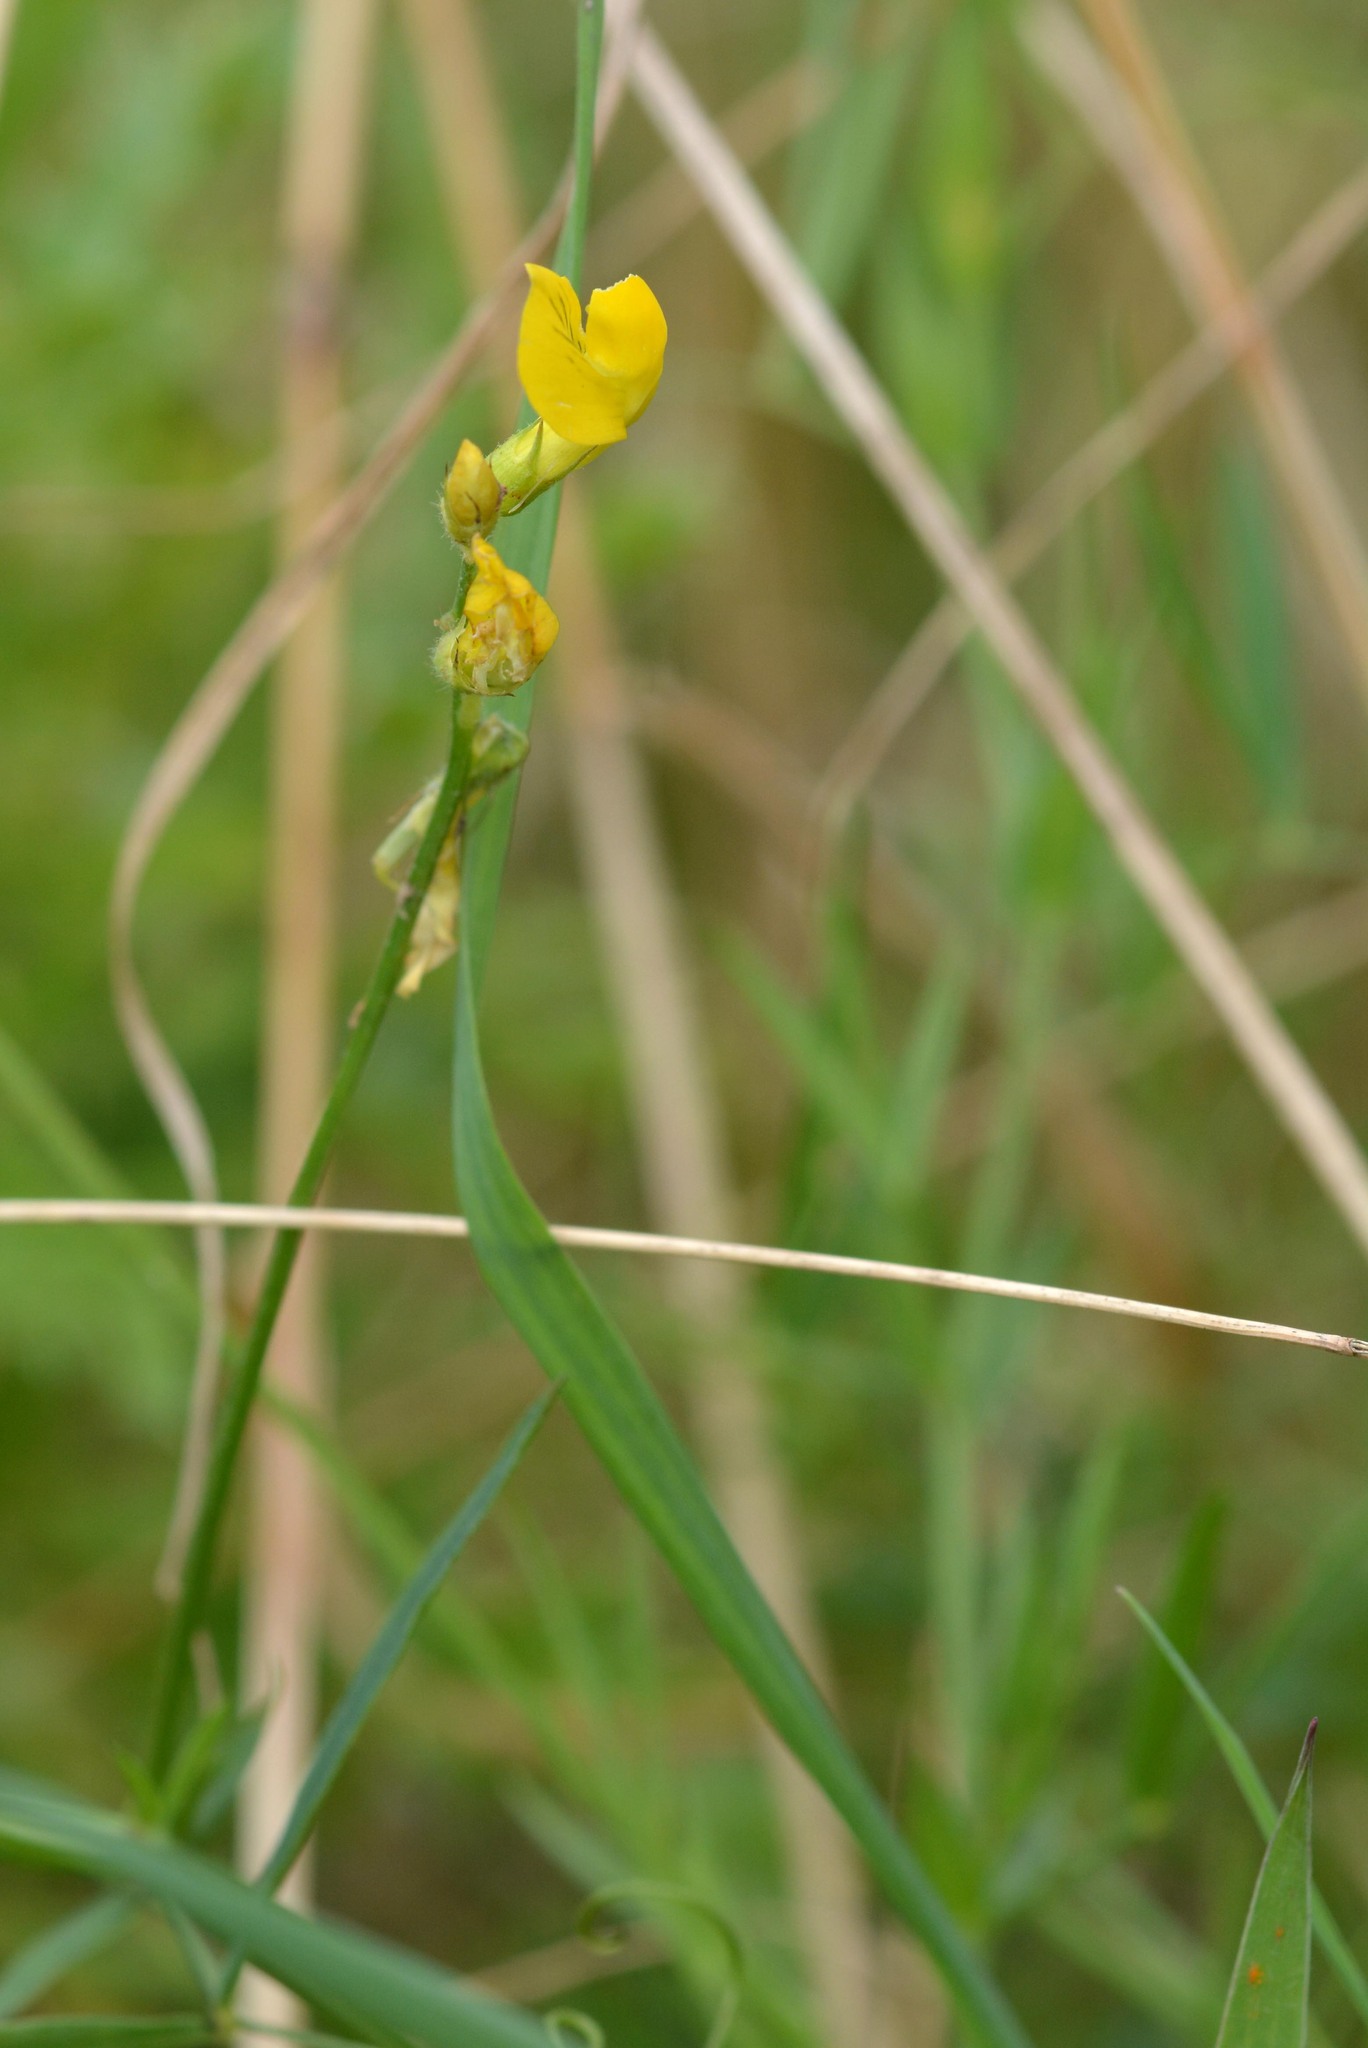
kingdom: Plantae
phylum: Tracheophyta
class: Magnoliopsida
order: Fabales
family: Fabaceae
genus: Lathyrus
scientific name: Lathyrus pratensis
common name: Meadow vetchling
